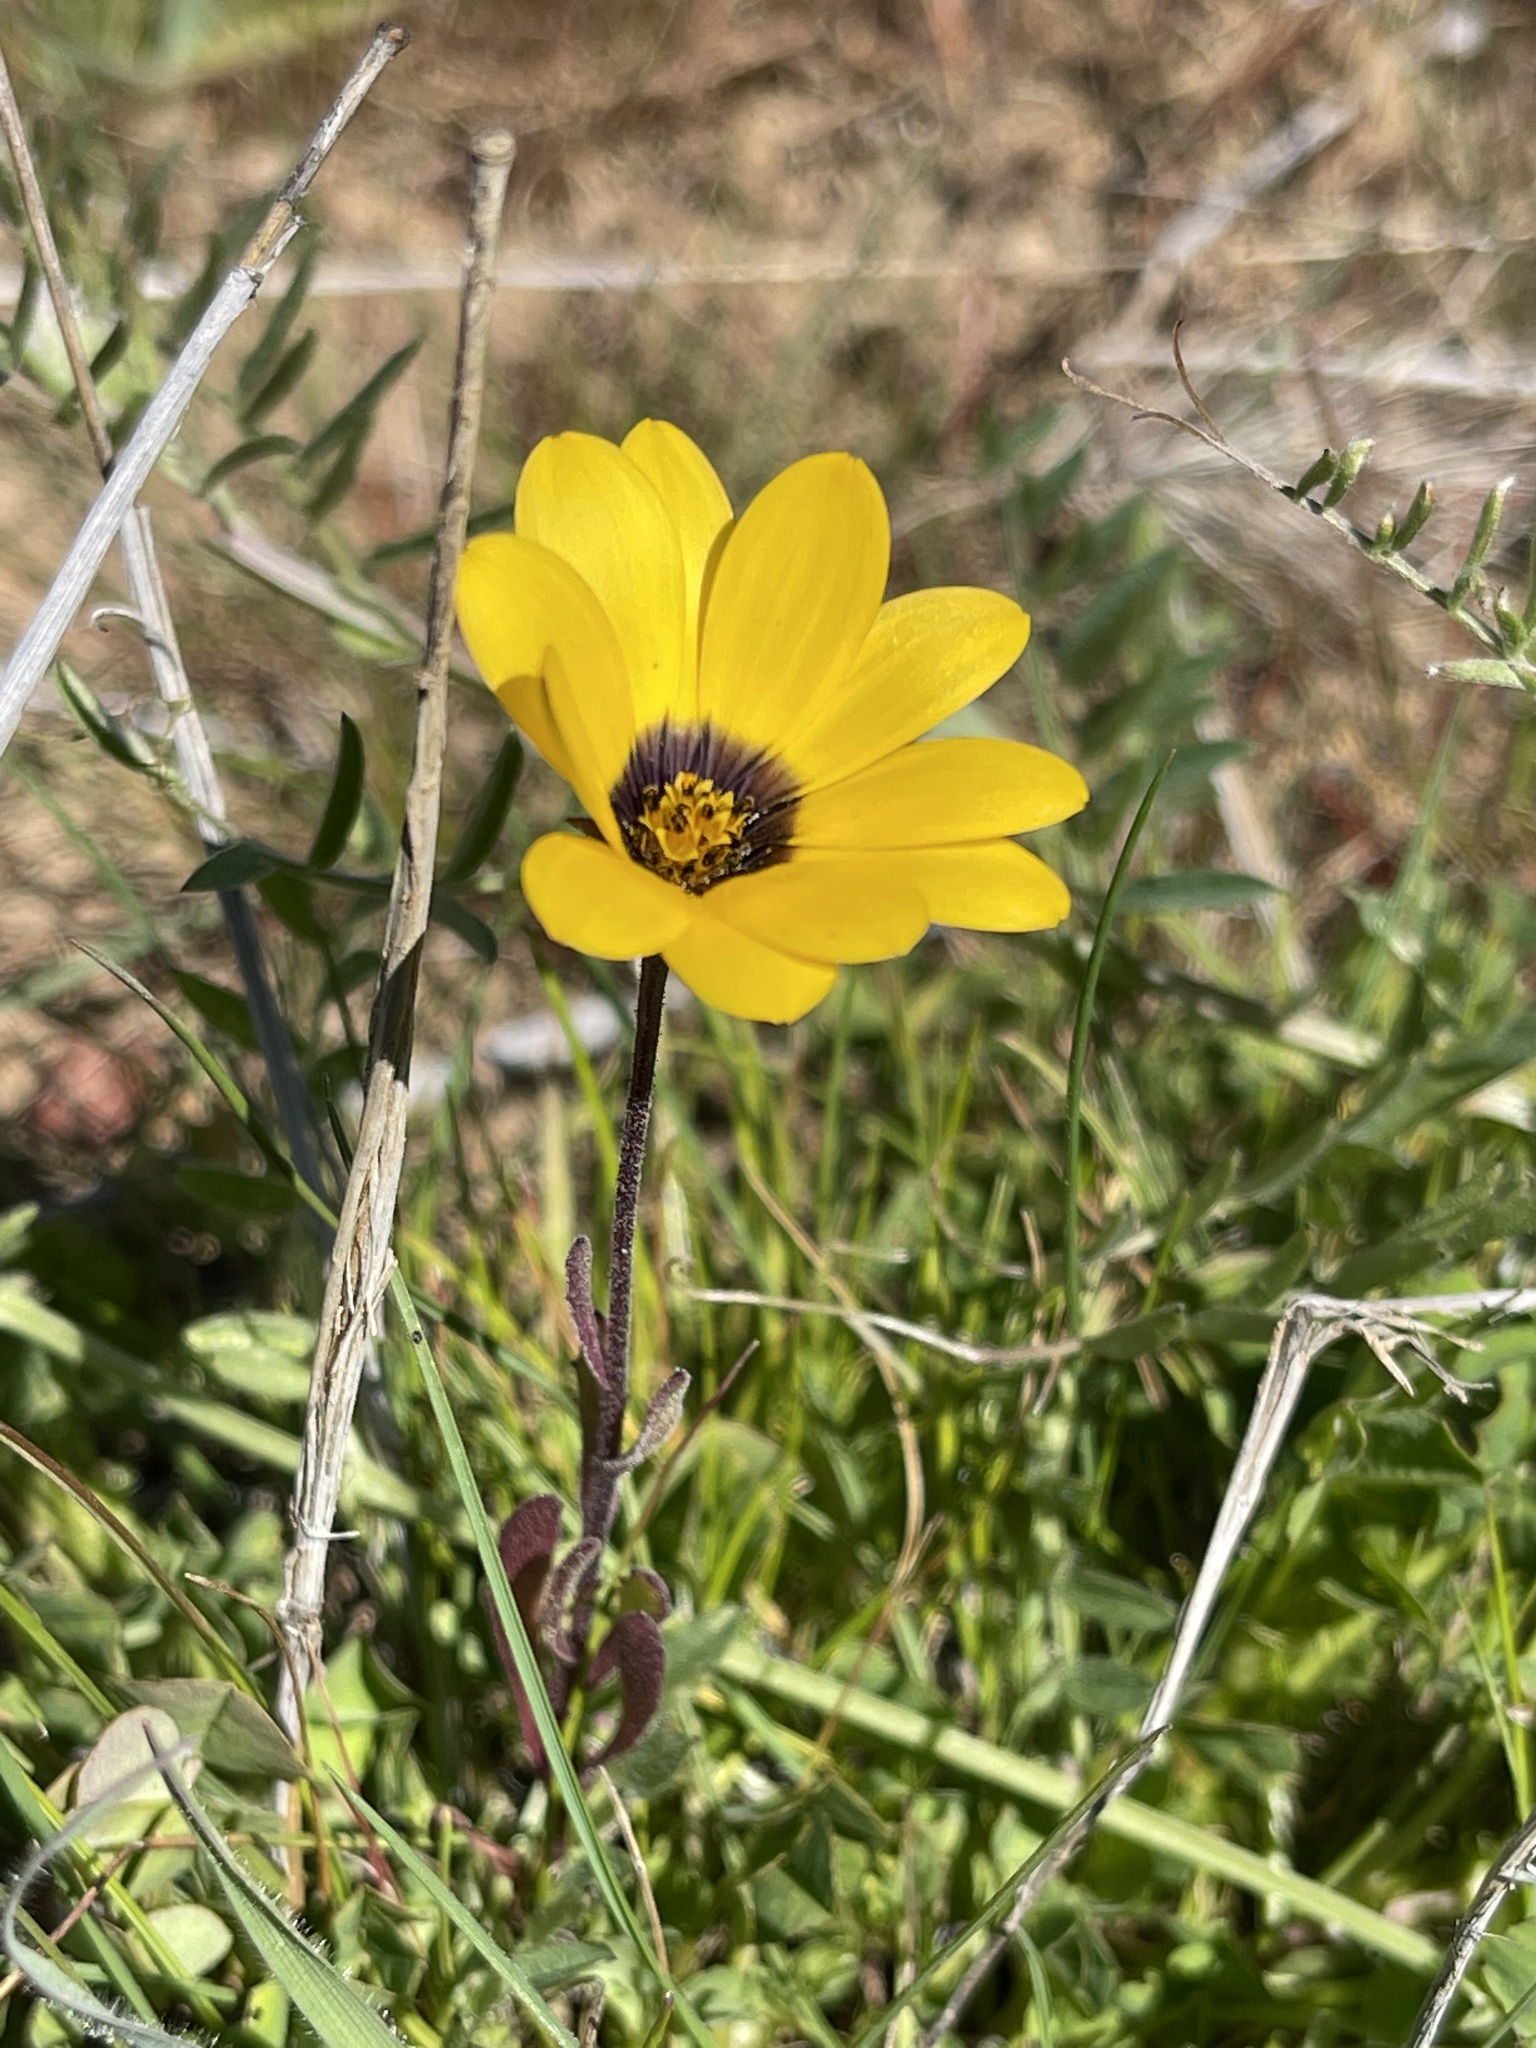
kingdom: Plantae
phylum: Tracheophyta
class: Magnoliopsida
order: Asterales
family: Asteraceae
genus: Dimorphotheca
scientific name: Dimorphotheca sinuata
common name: Glandular cape marigold
